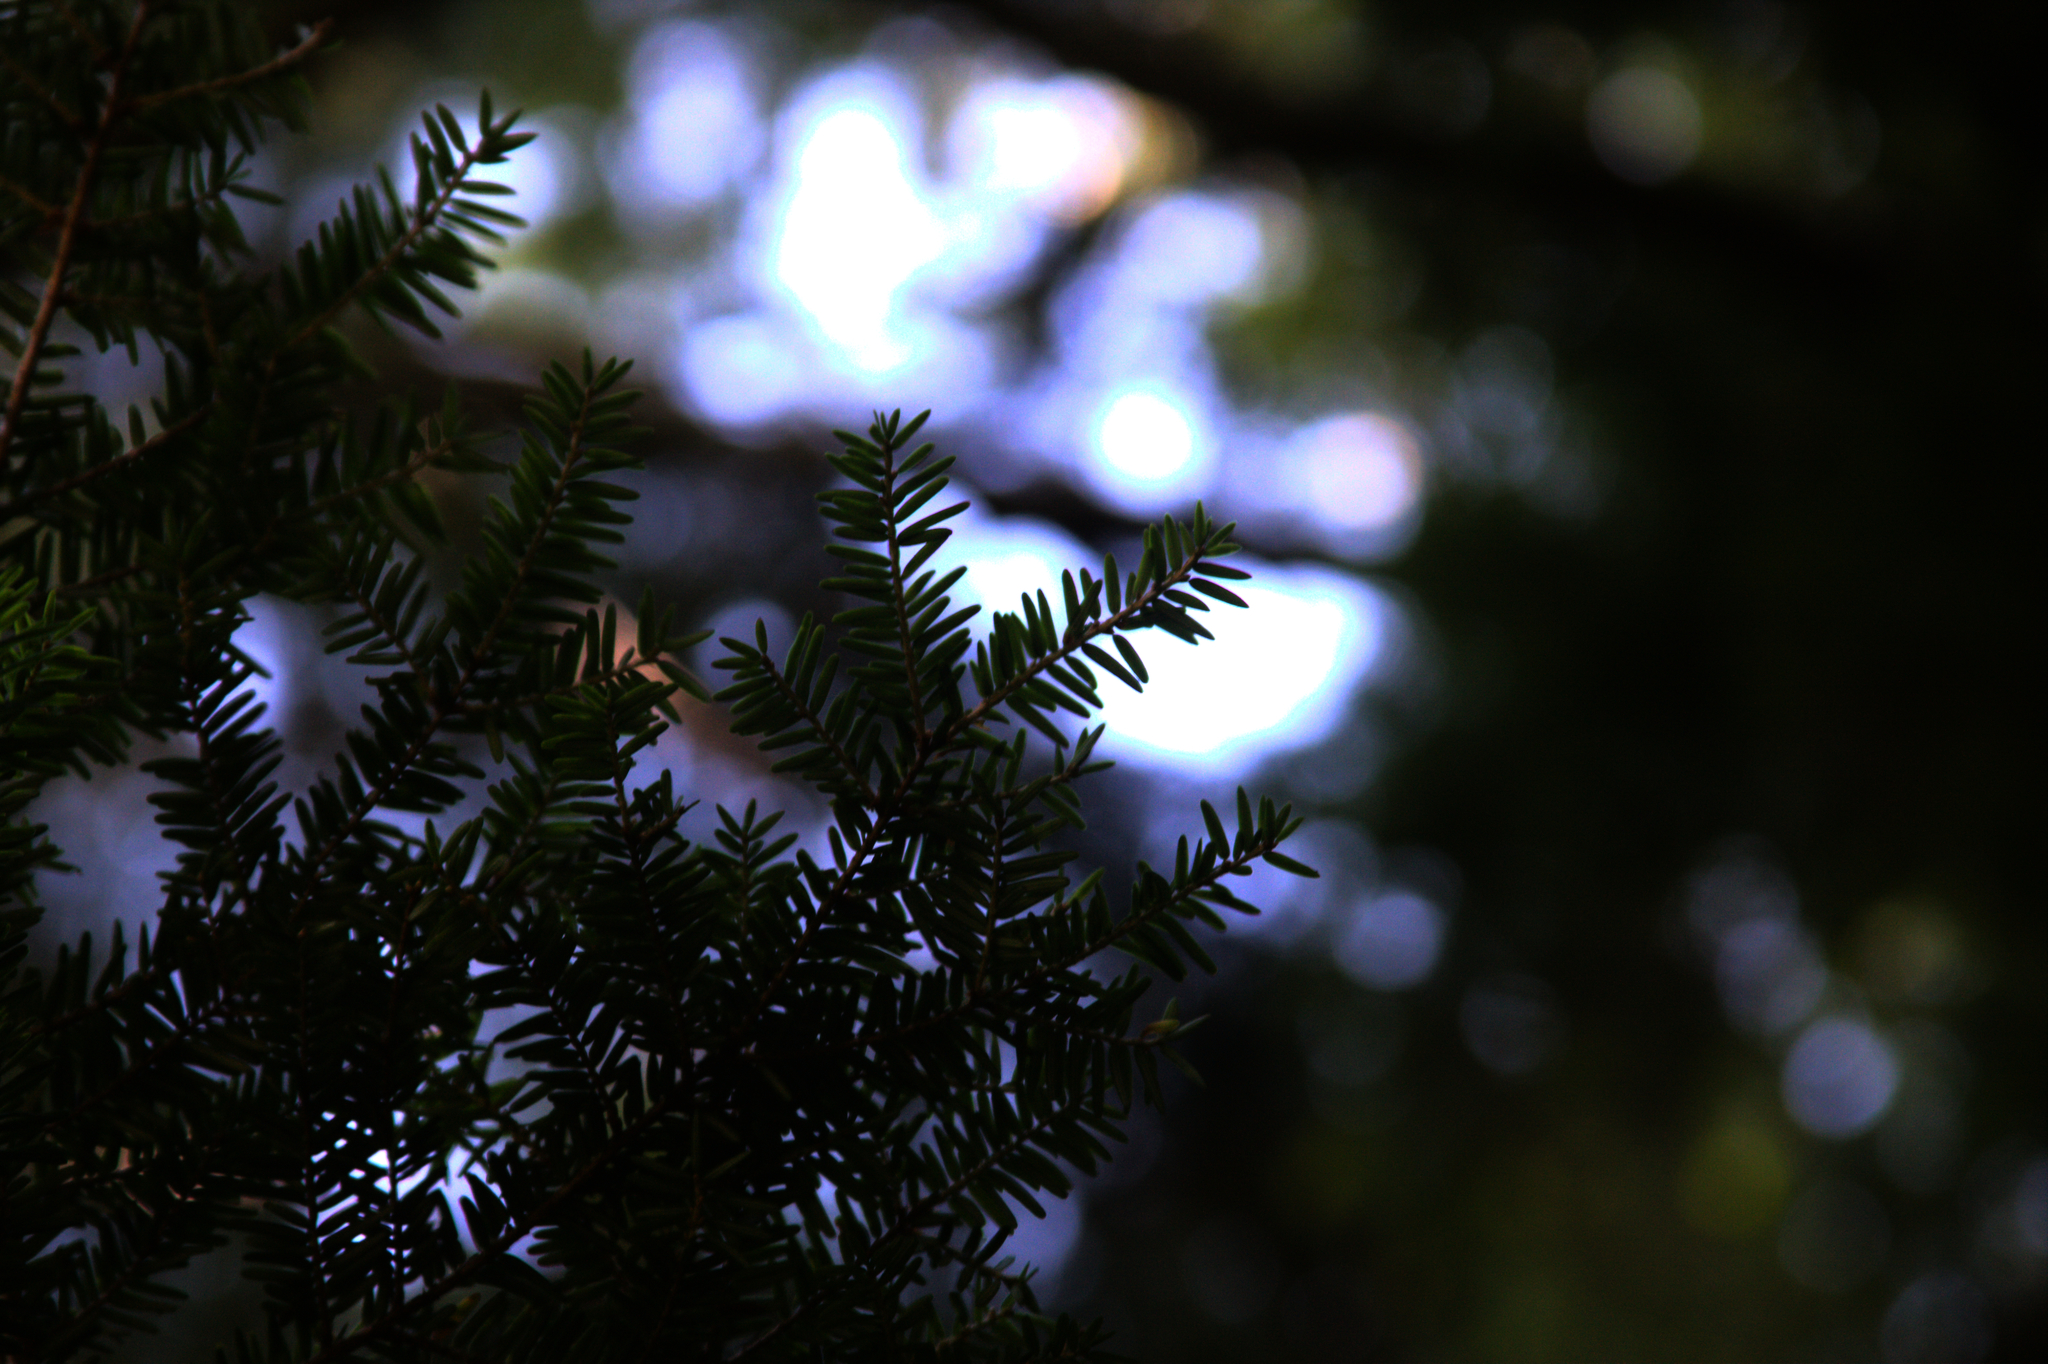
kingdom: Plantae
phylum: Tracheophyta
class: Pinopsida
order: Pinales
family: Pinaceae
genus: Tsuga
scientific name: Tsuga canadensis
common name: Eastern hemlock
